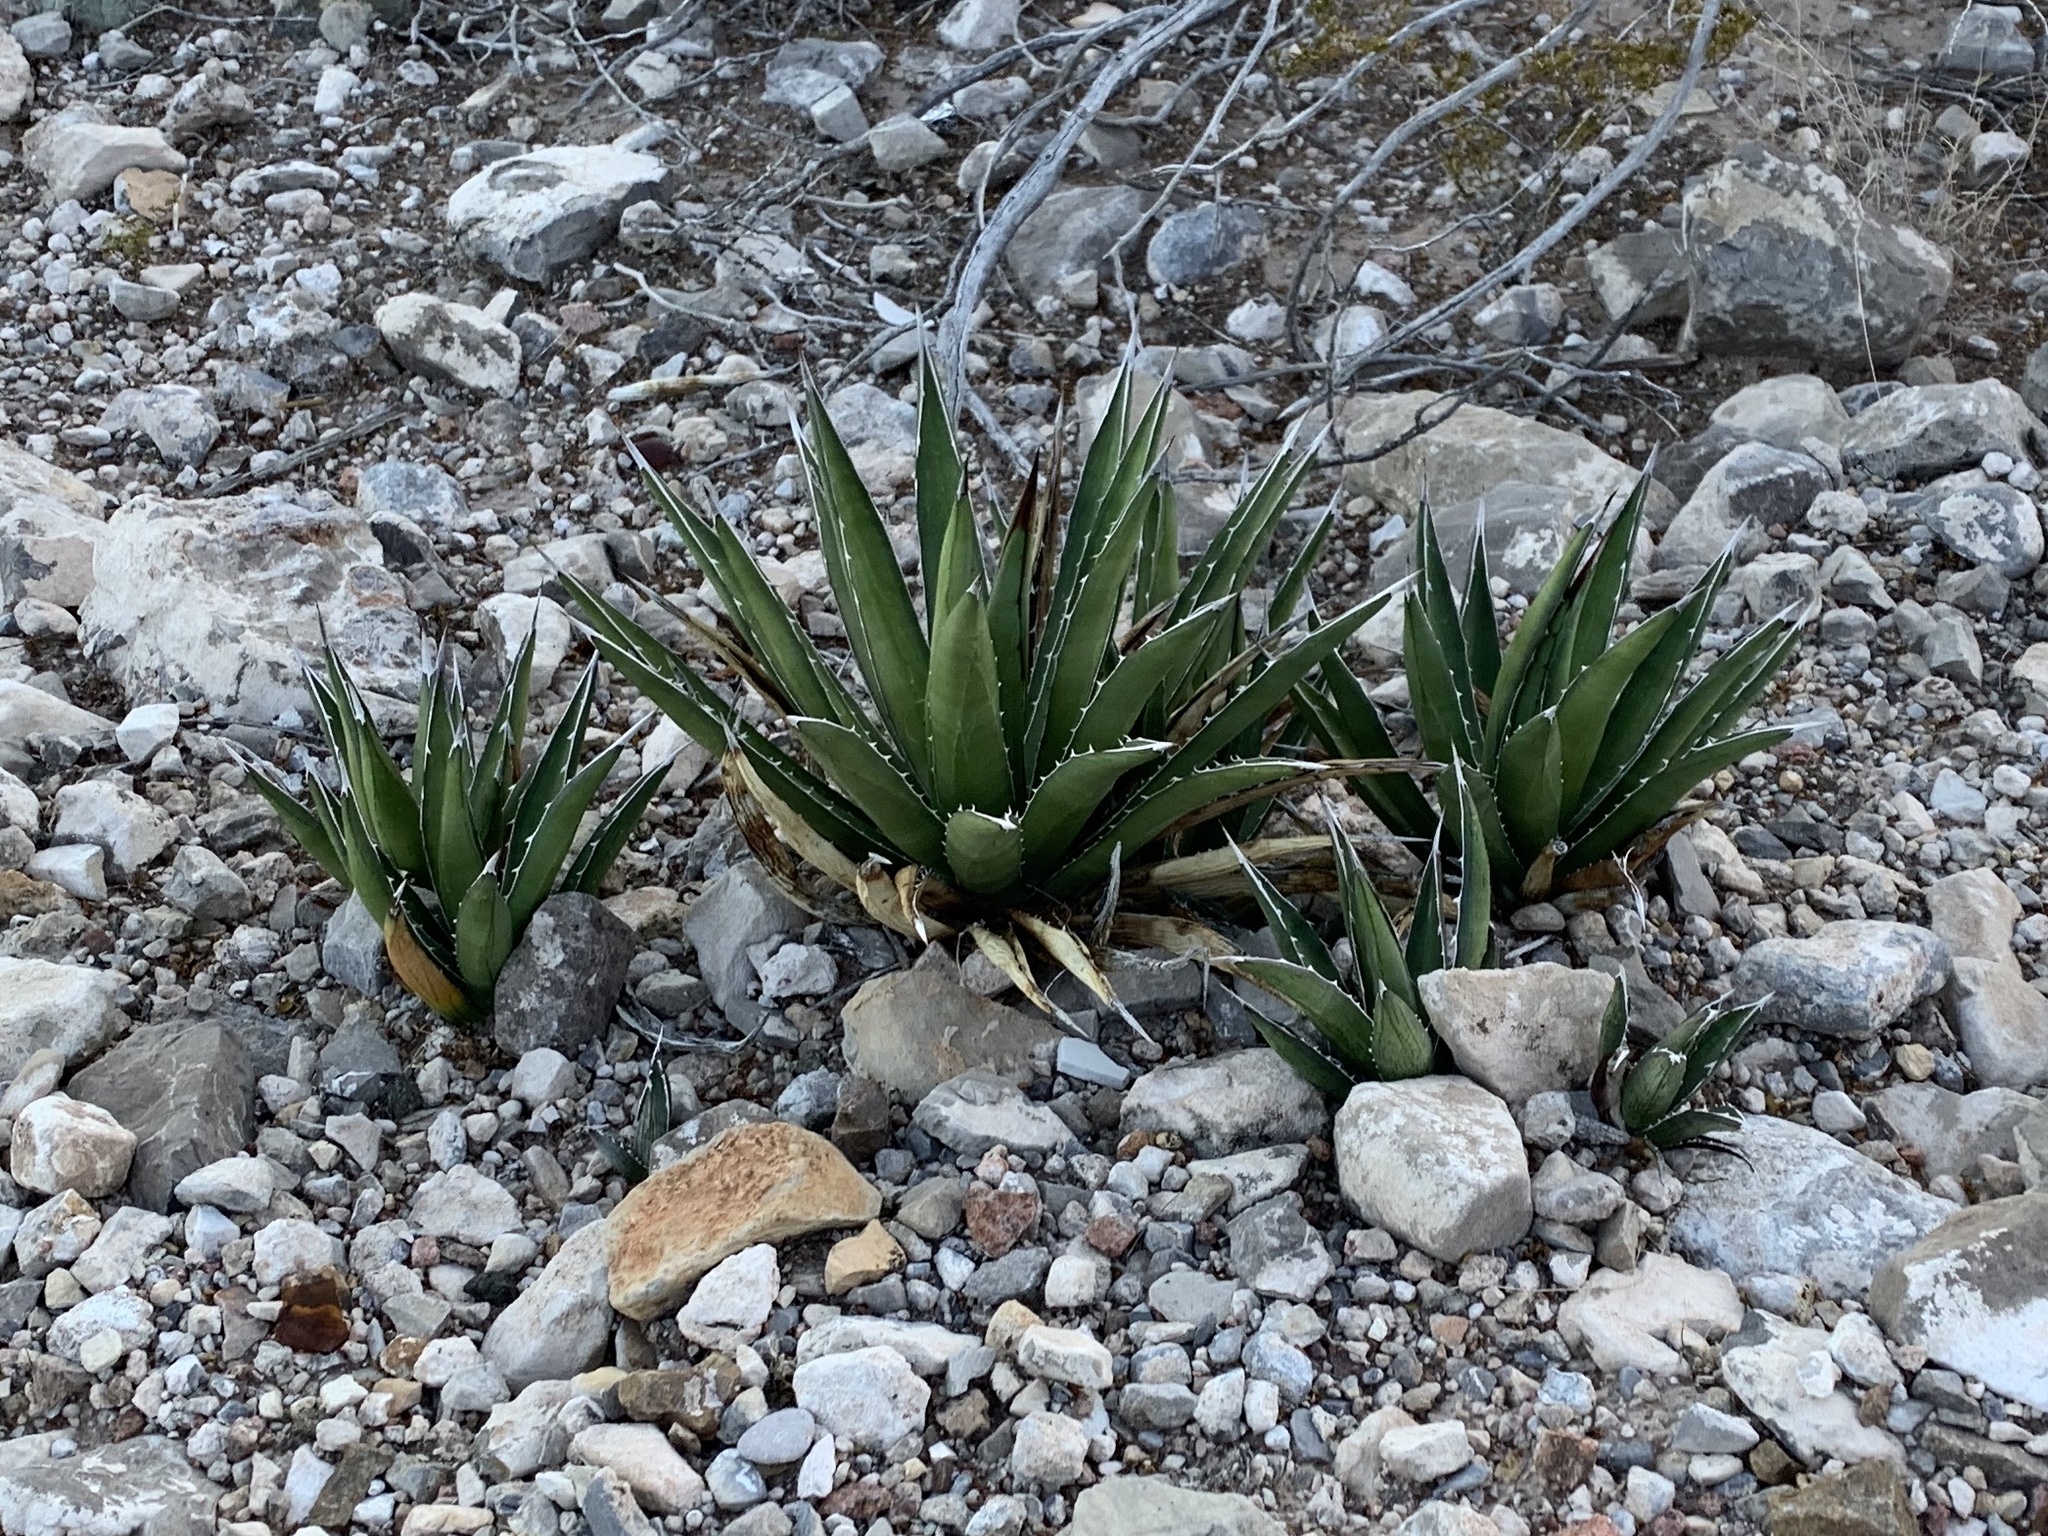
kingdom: Plantae
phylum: Tracheophyta
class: Liliopsida
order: Asparagales
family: Asparagaceae
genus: Agave
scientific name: Agave lechuguilla
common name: Lecheguilla agave
